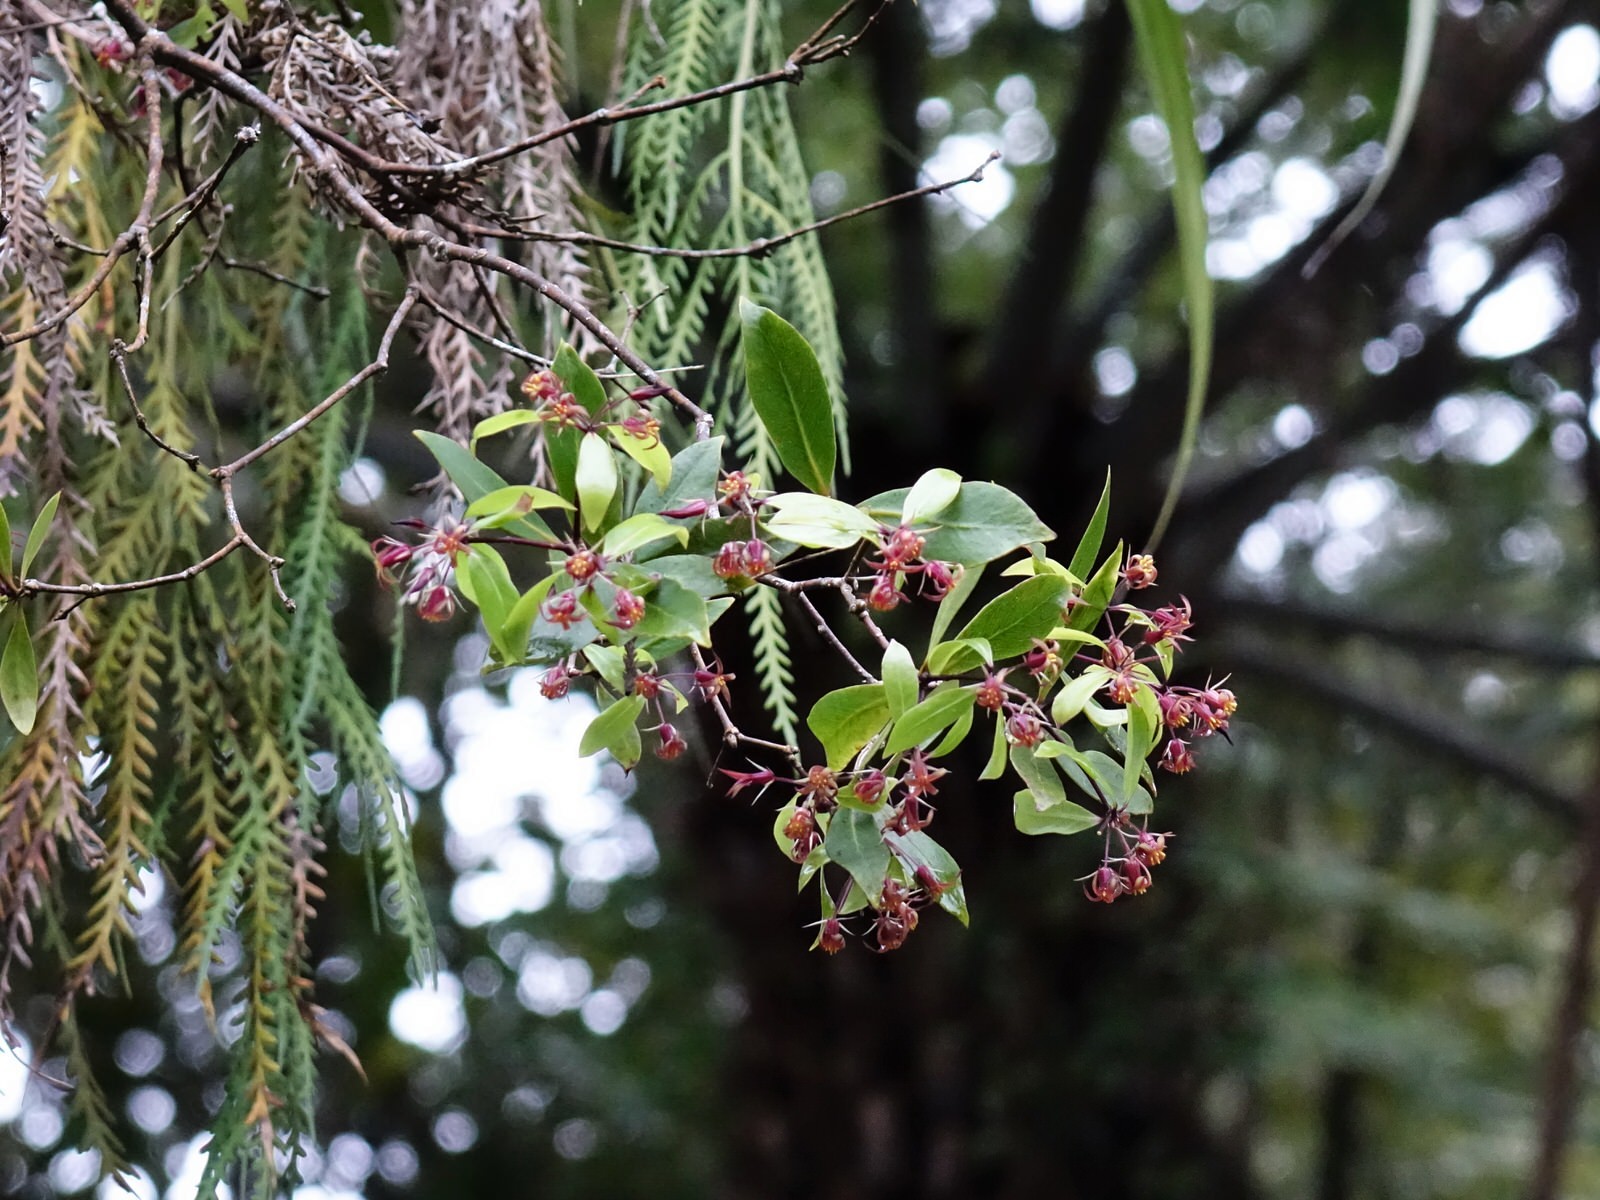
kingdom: Plantae
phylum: Tracheophyta
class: Magnoliopsida
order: Apiales
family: Pittosporaceae
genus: Pittosporum
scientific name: Pittosporum cornifolium
